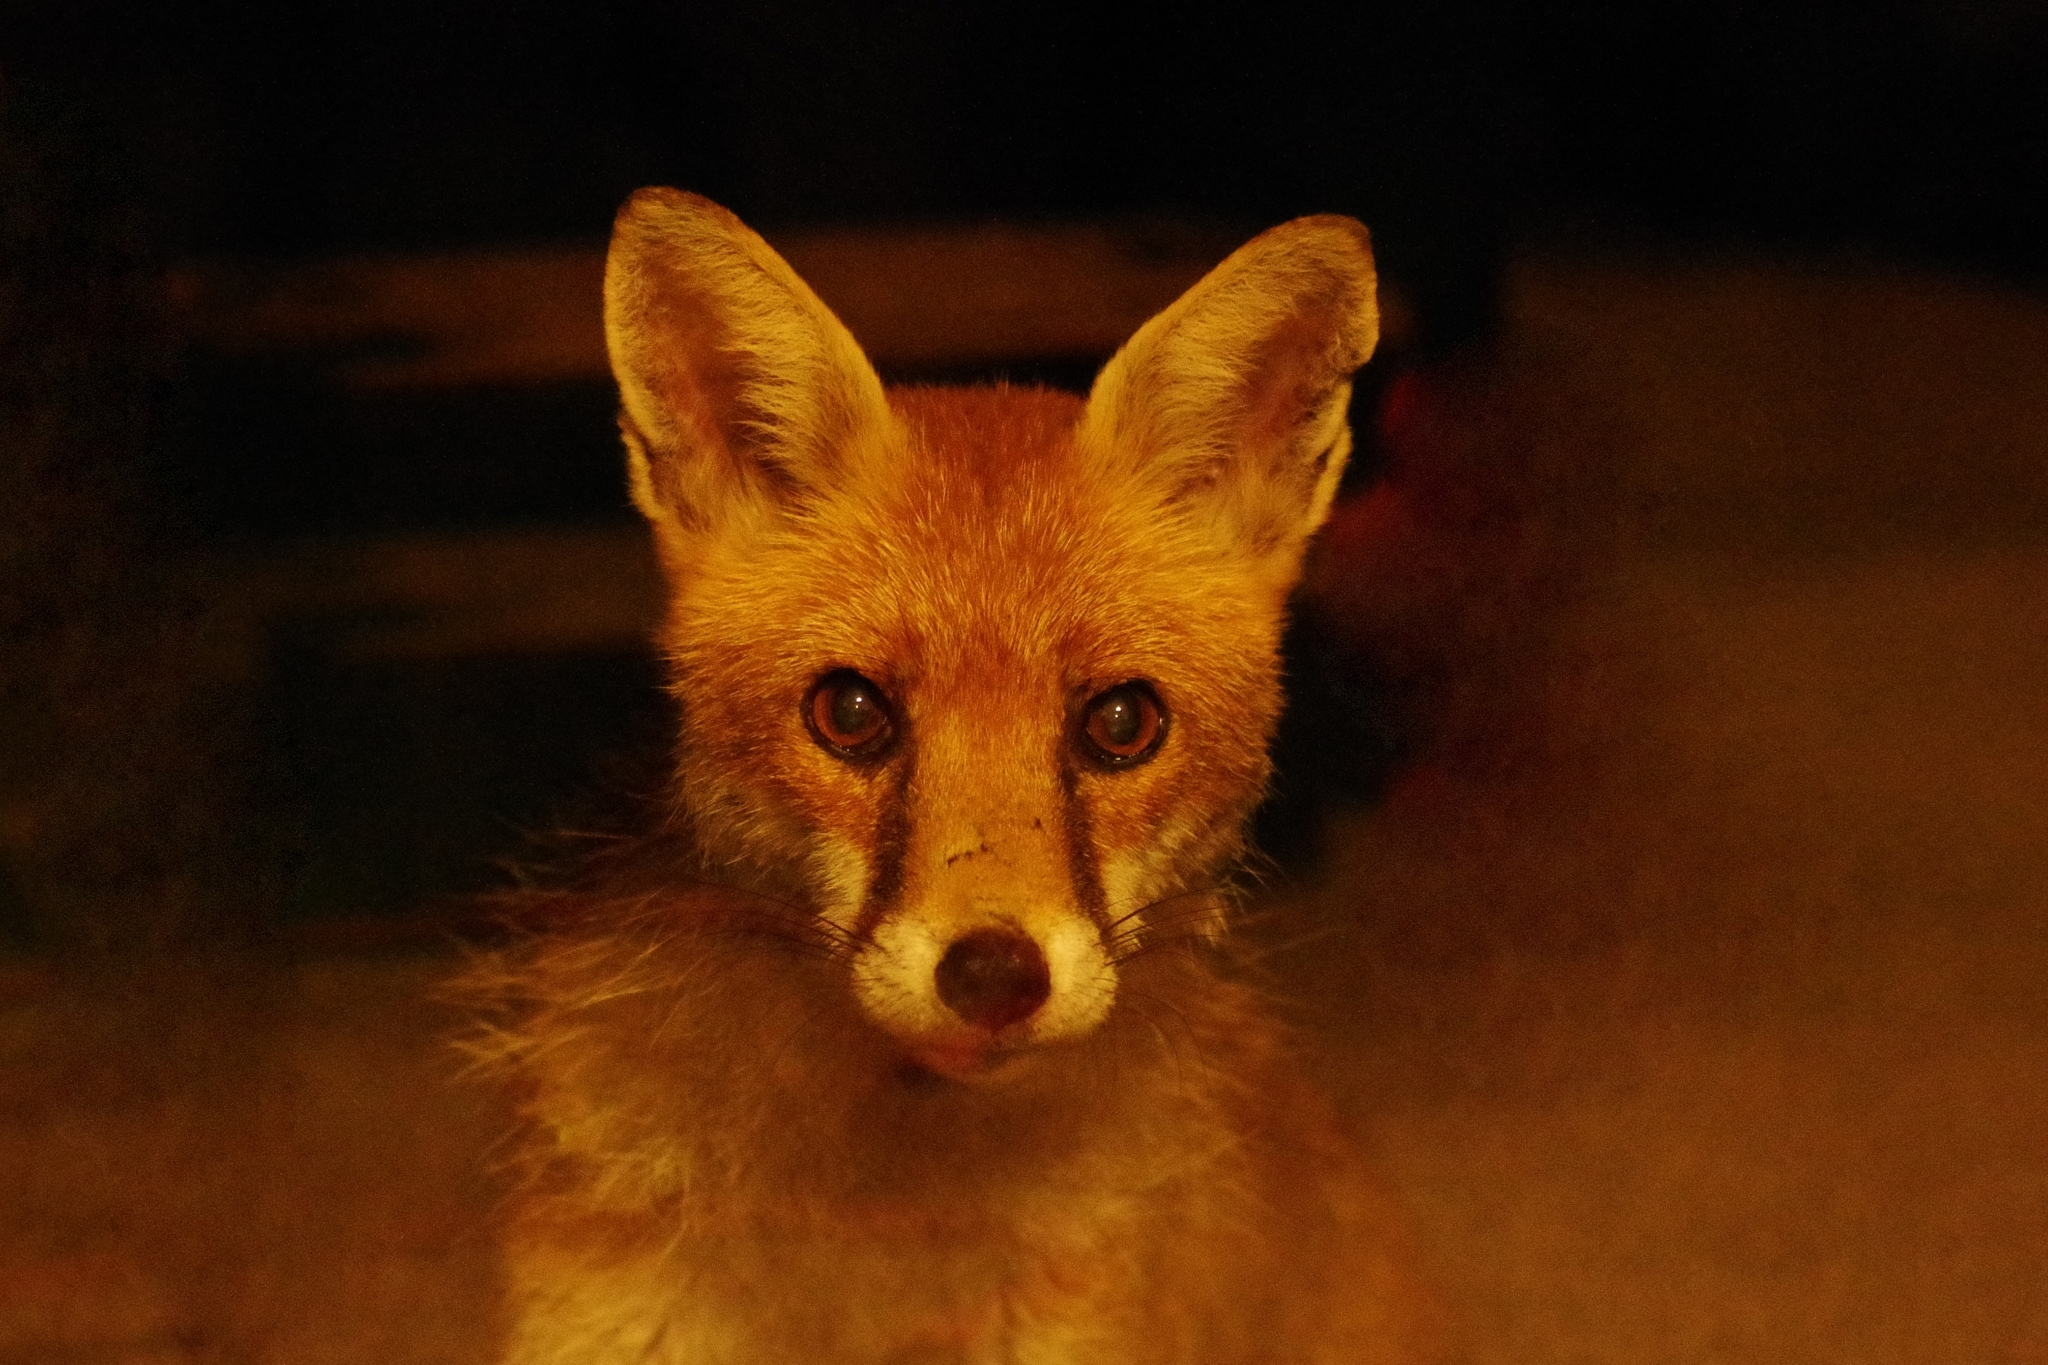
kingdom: Animalia
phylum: Chordata
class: Mammalia
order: Carnivora
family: Canidae
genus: Vulpes
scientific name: Vulpes vulpes
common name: Red fox
